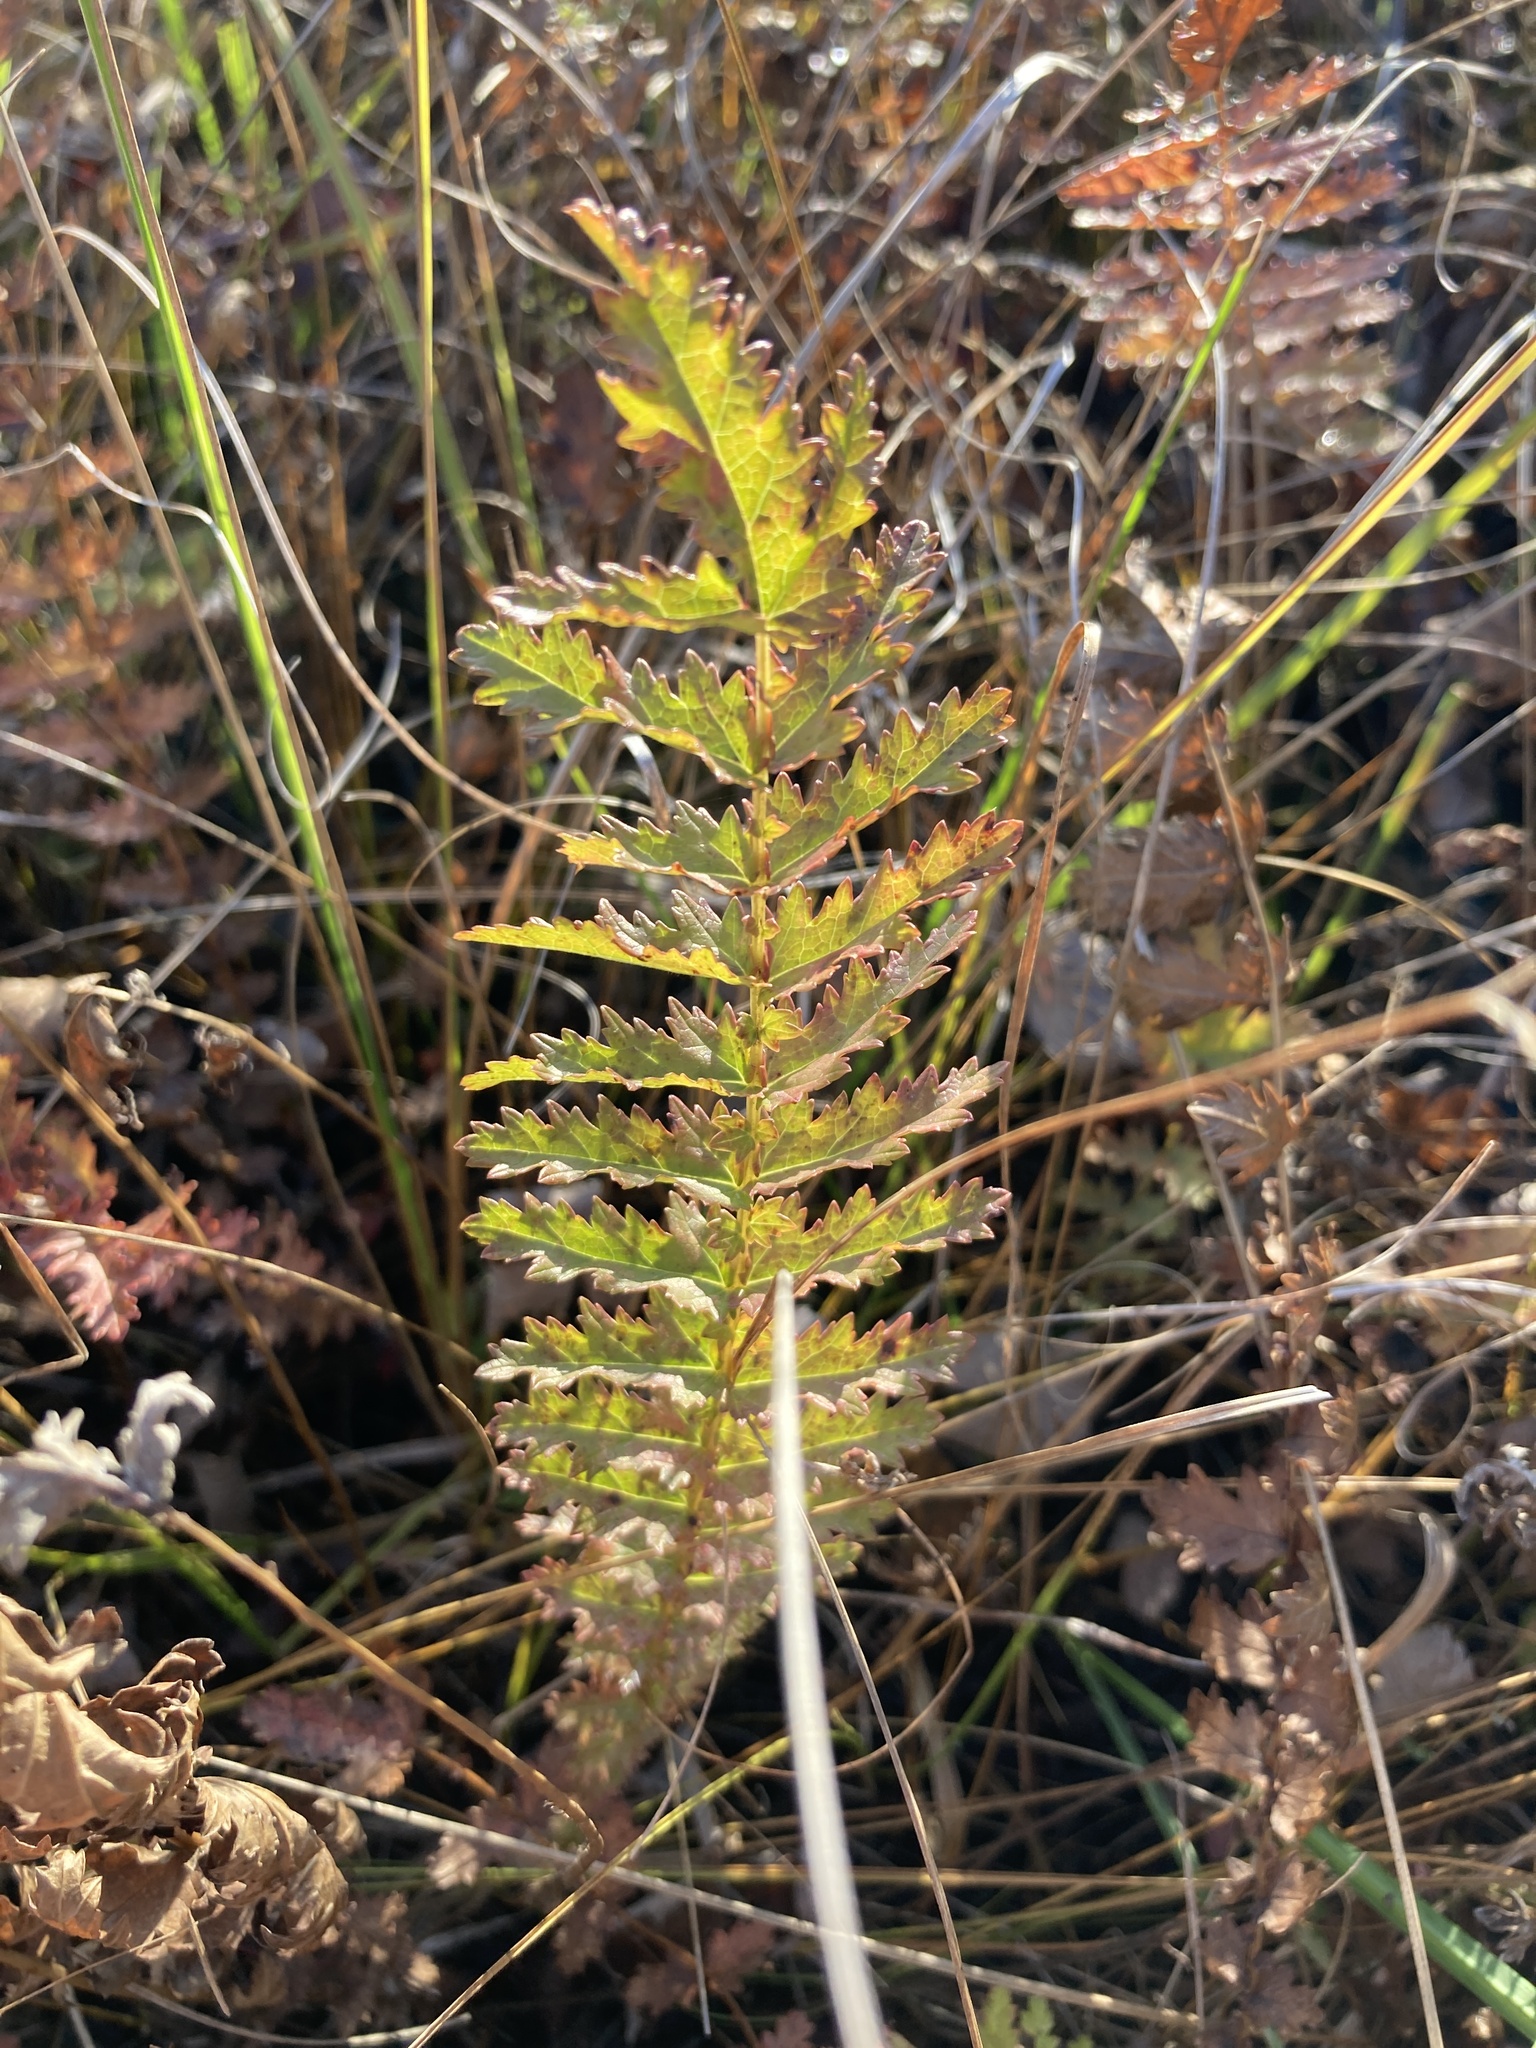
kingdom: Plantae
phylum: Tracheophyta
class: Magnoliopsida
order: Rosales
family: Rosaceae
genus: Filipendula
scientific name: Filipendula vulgaris
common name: Dropwort
